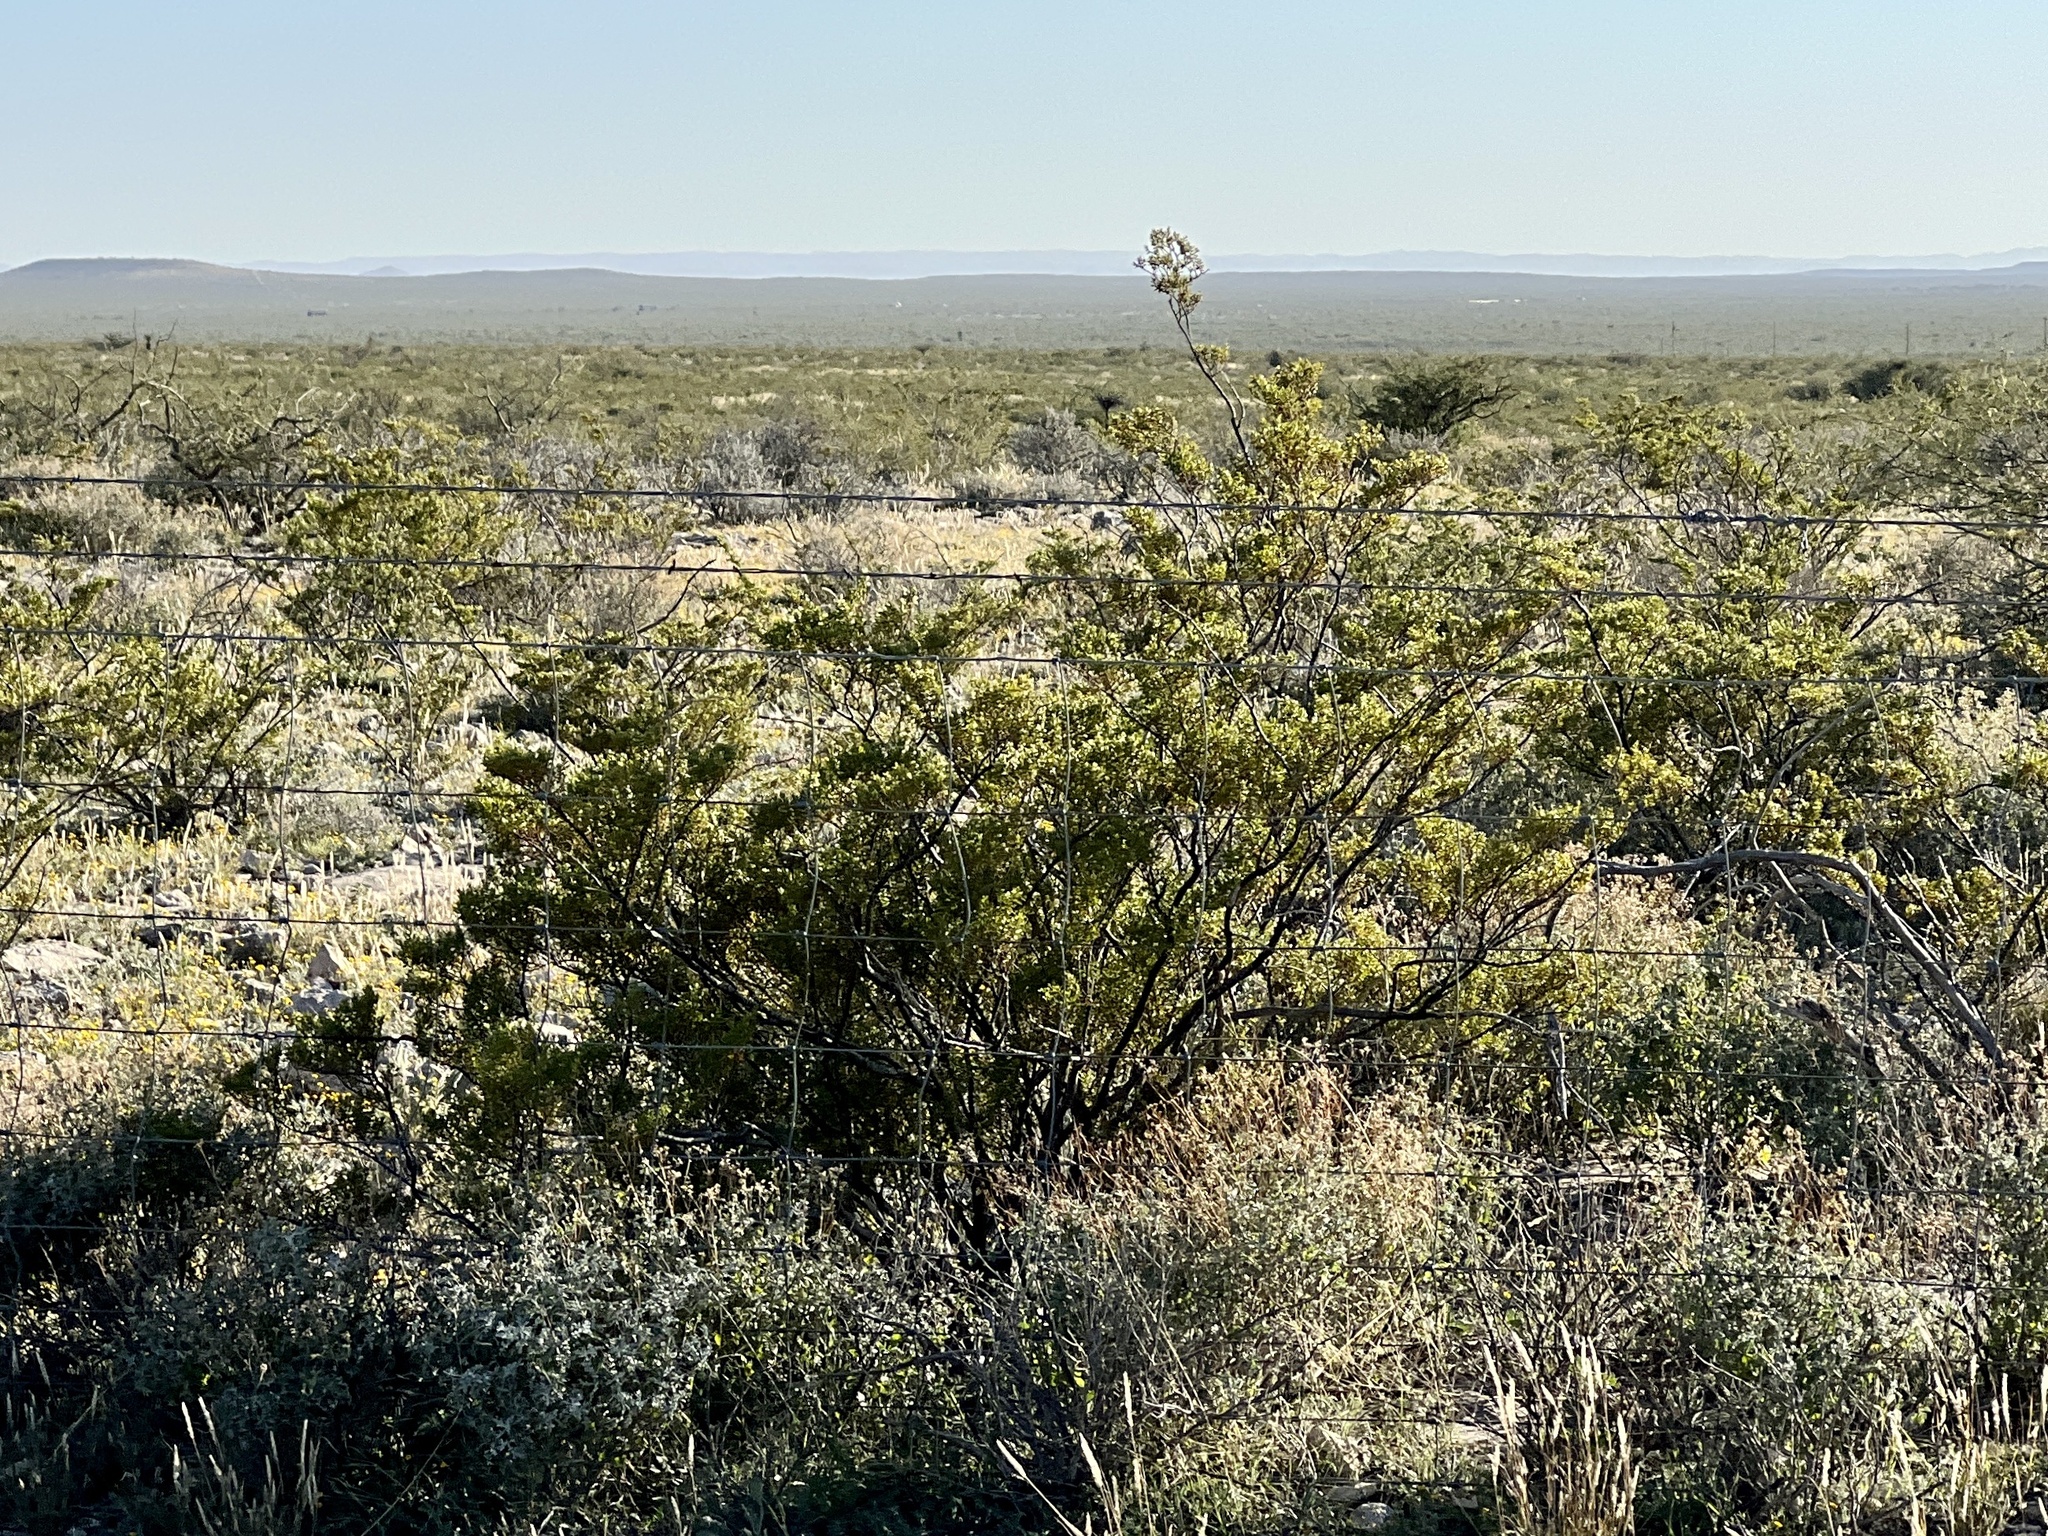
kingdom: Plantae
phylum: Tracheophyta
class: Magnoliopsida
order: Zygophyllales
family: Zygophyllaceae
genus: Larrea
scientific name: Larrea tridentata
